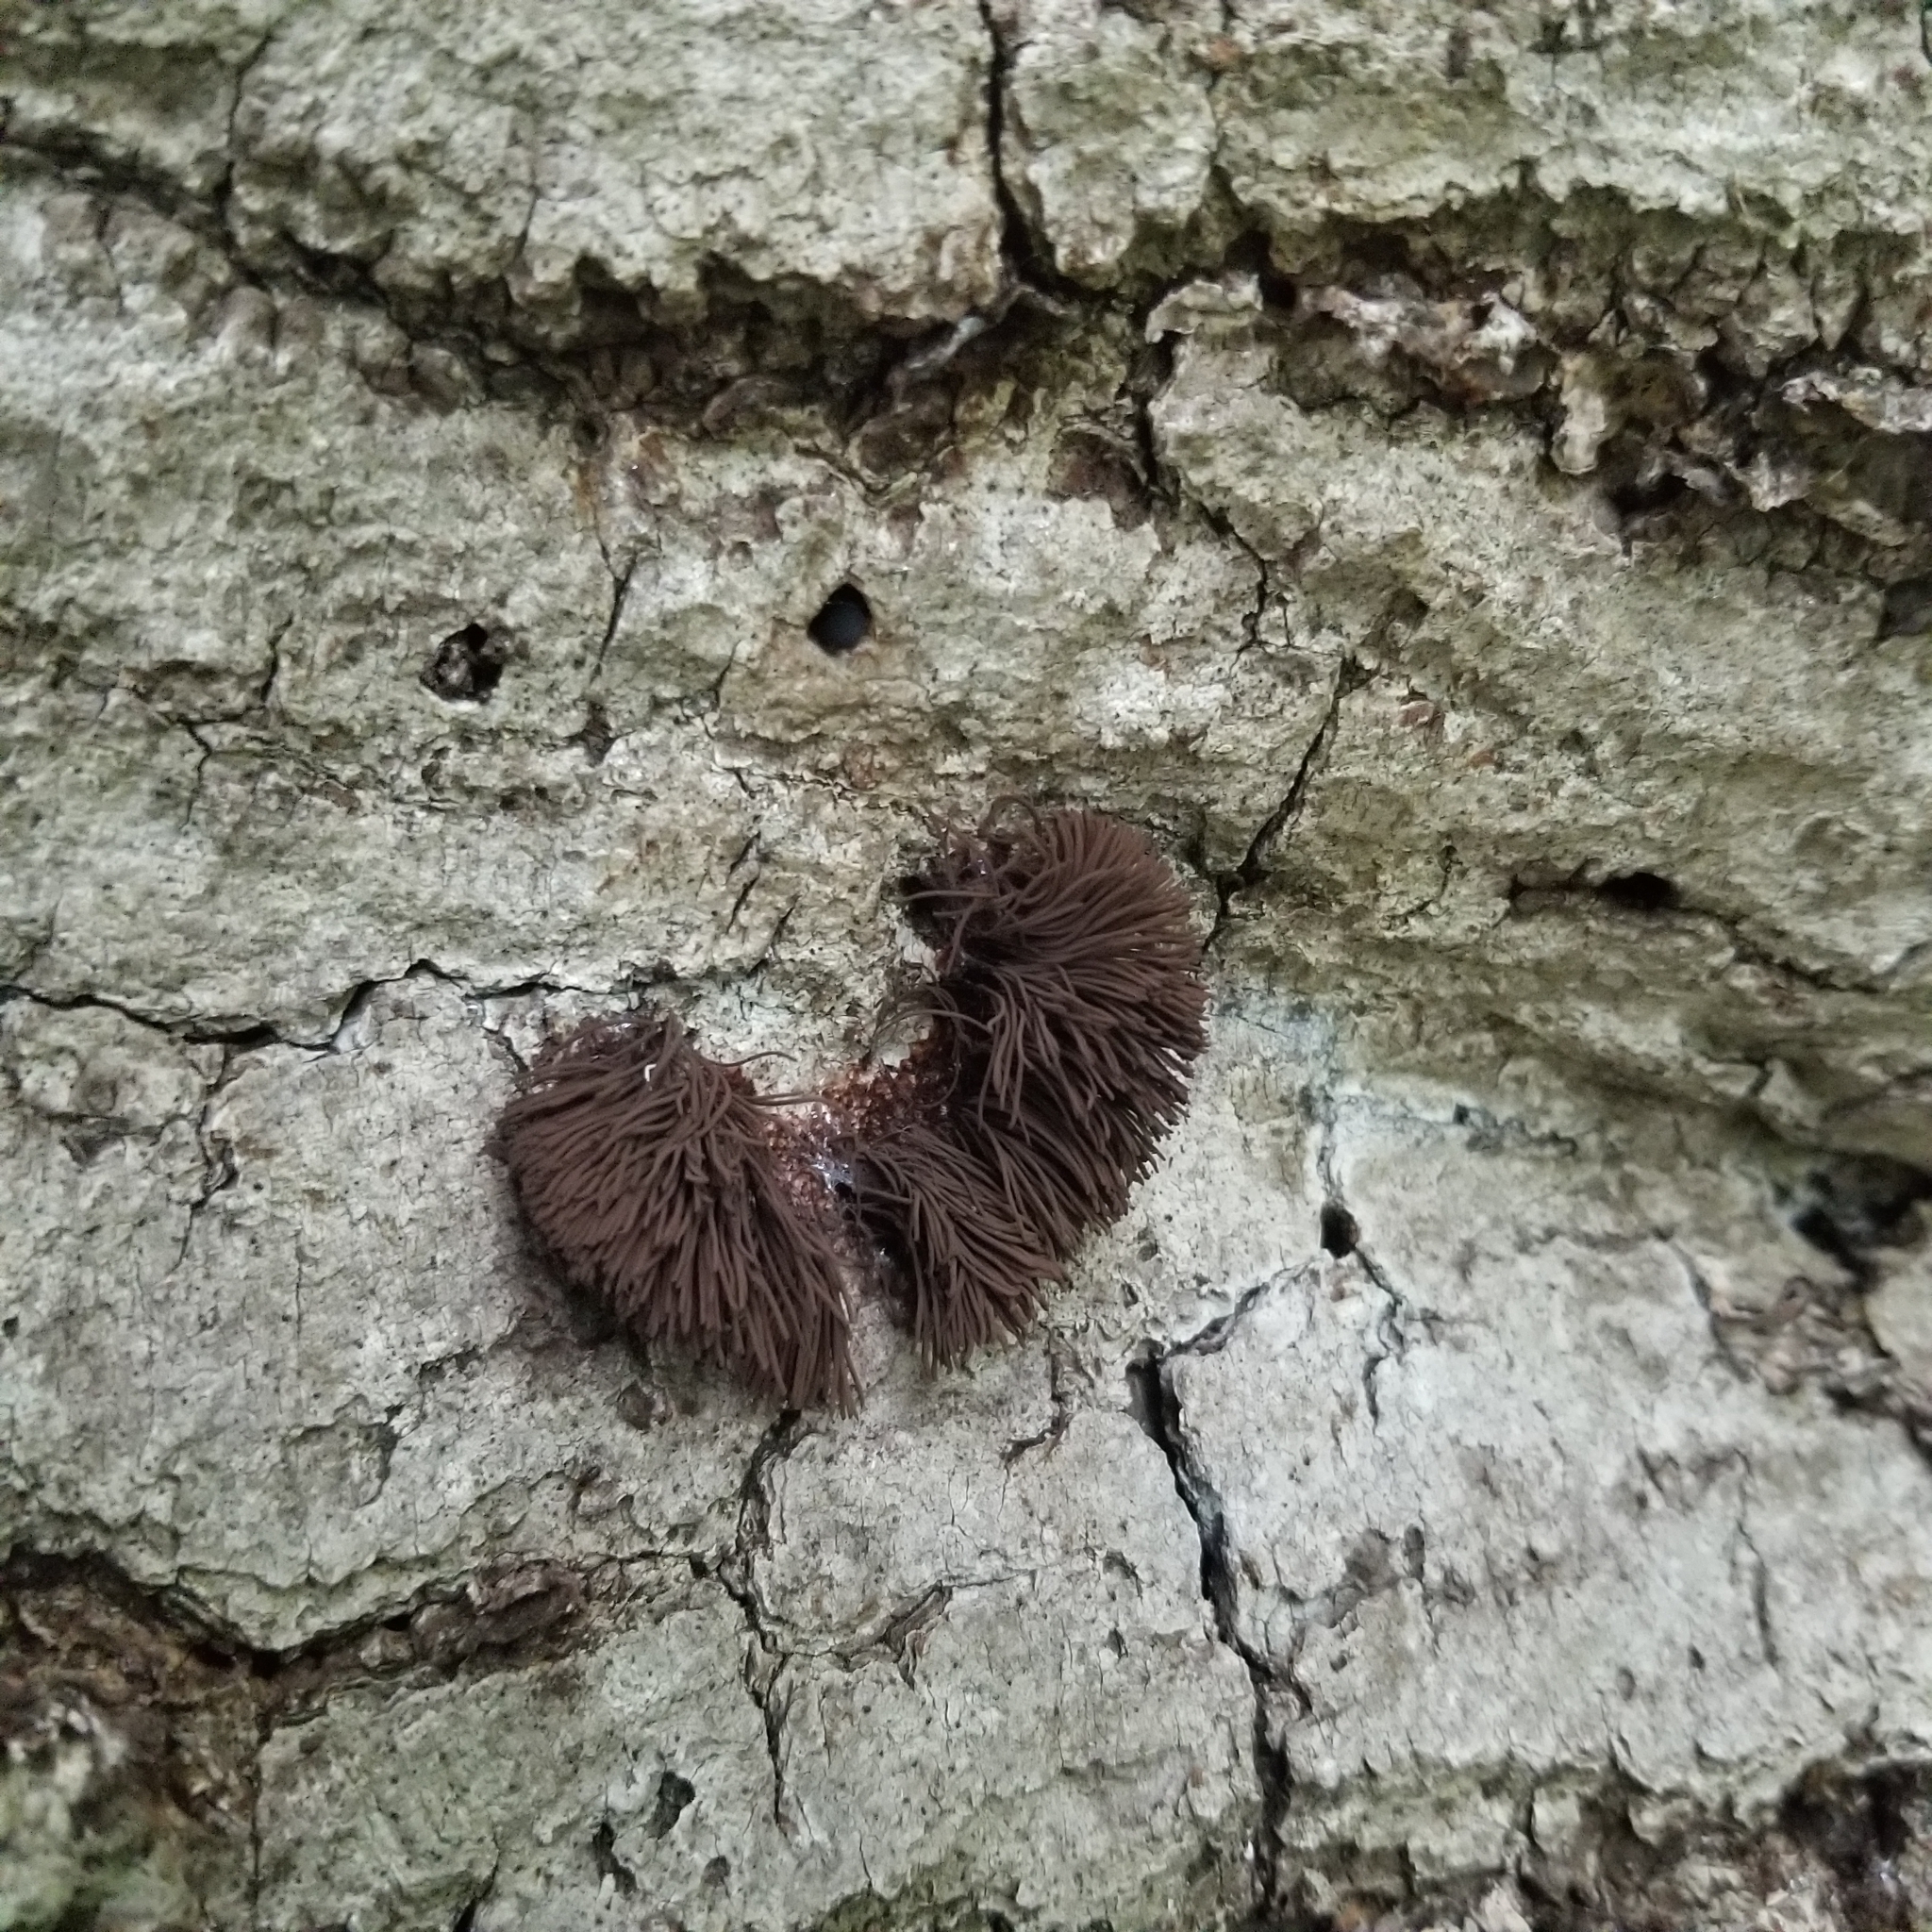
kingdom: Protozoa
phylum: Mycetozoa
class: Myxomycetes
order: Stemonitidales
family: Stemonitidaceae
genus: Stemonitis
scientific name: Stemonitis splendens
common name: Chocolate tube slime
